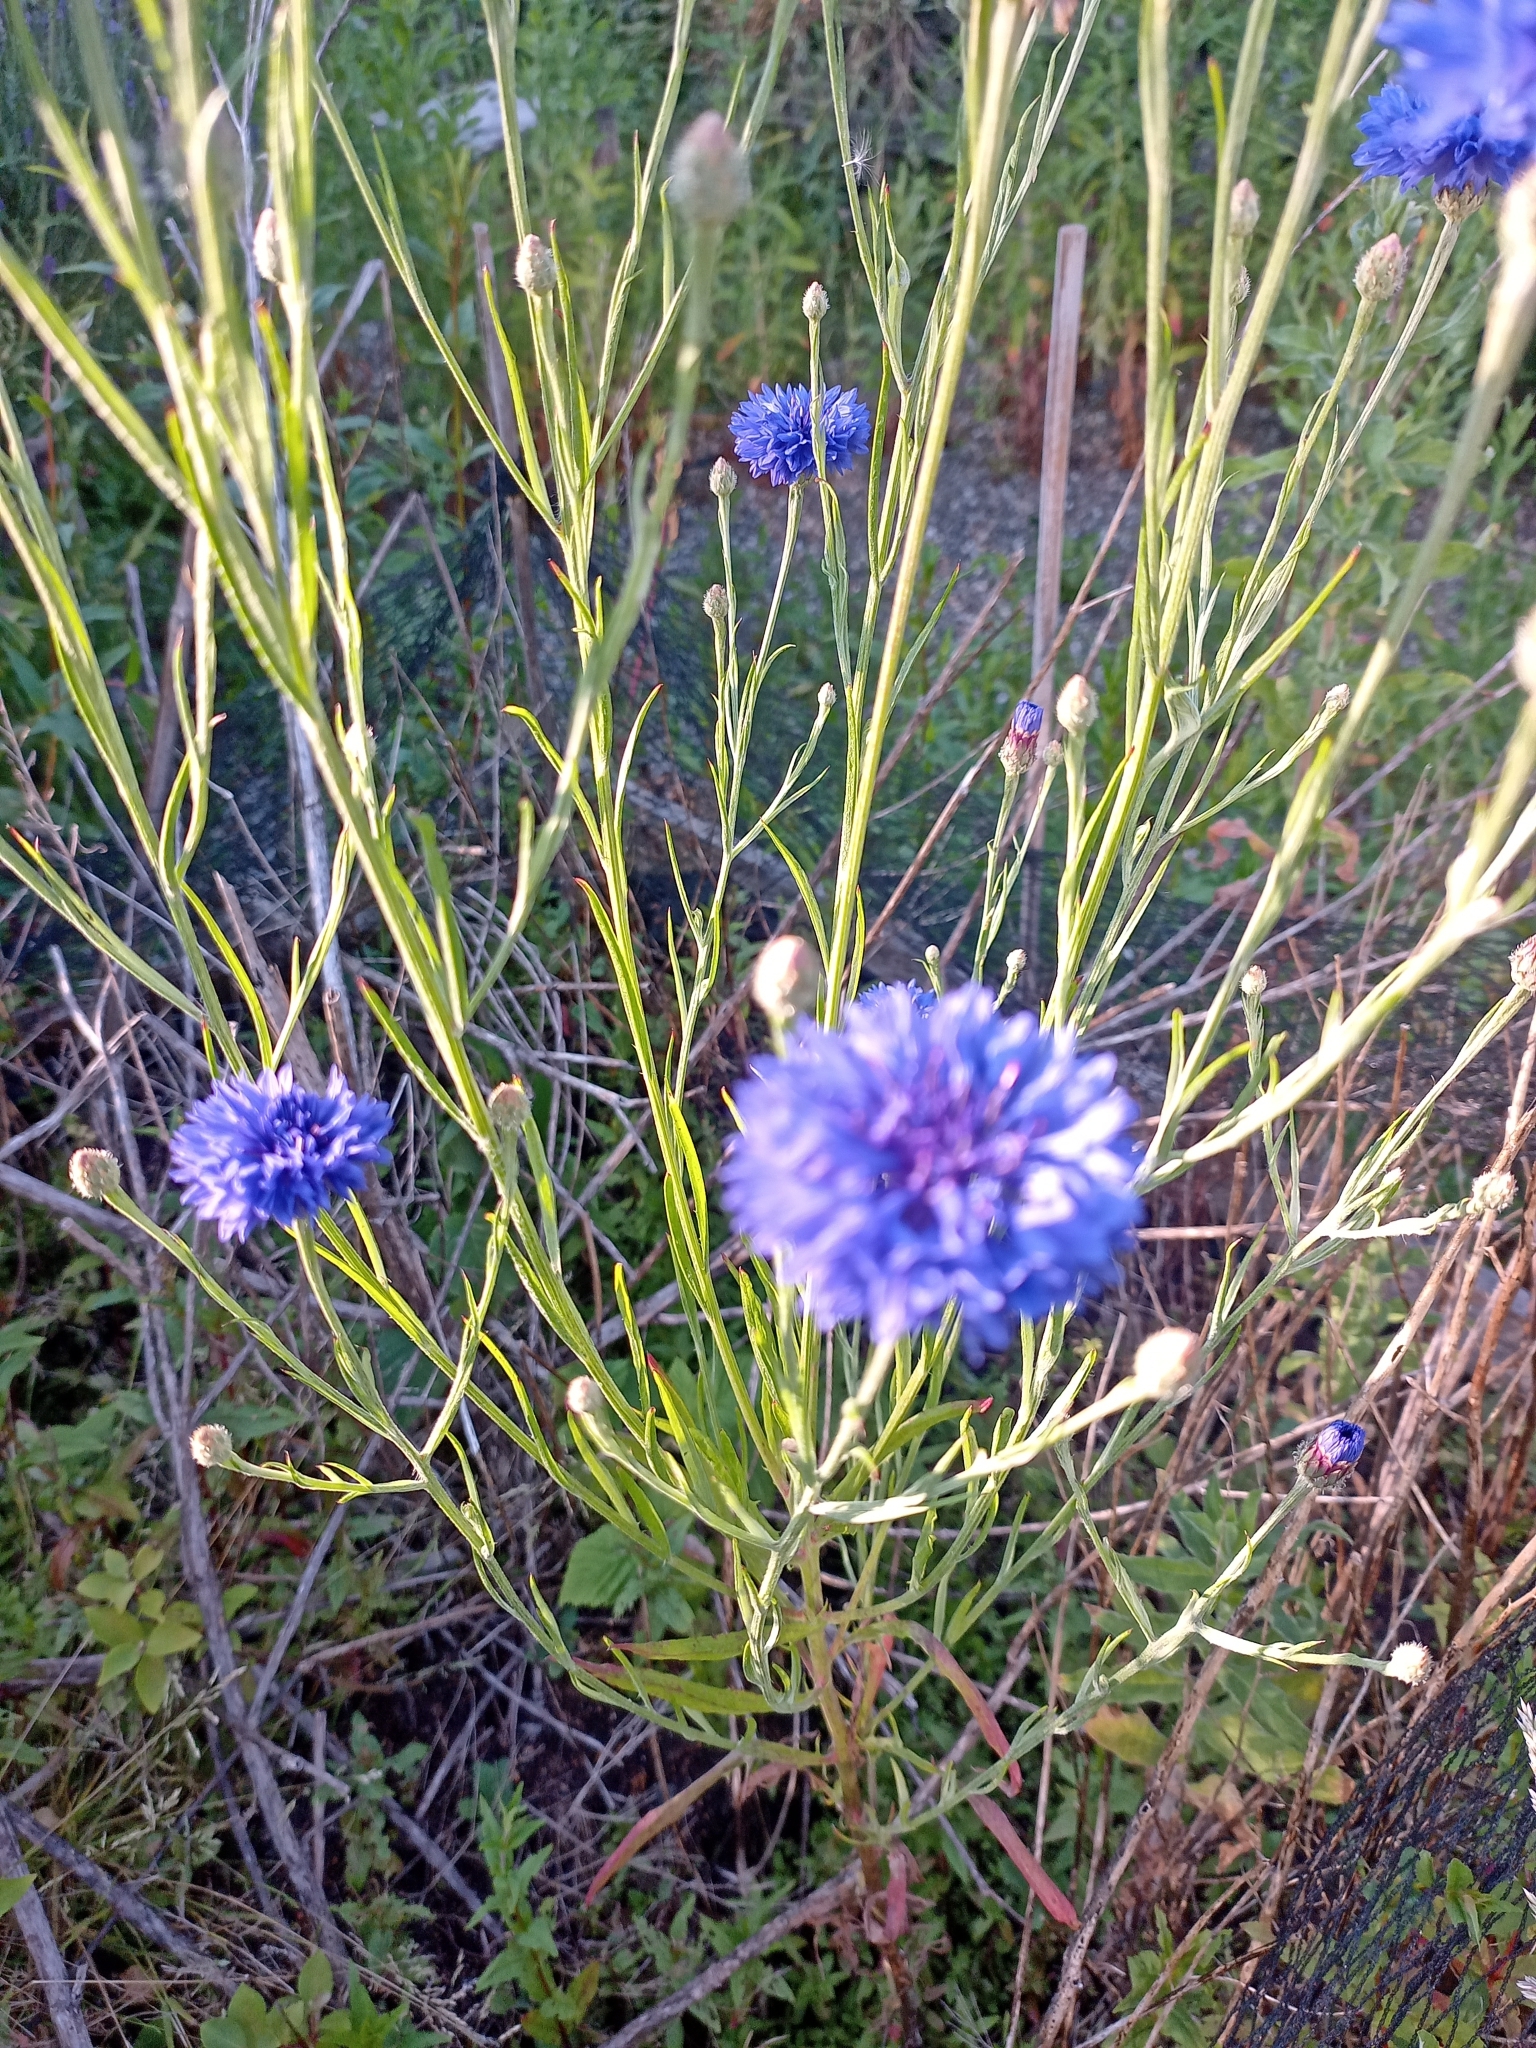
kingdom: Plantae
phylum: Tracheophyta
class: Magnoliopsida
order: Asterales
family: Asteraceae
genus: Centaurea
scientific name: Centaurea cyanus
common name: Cornflower
